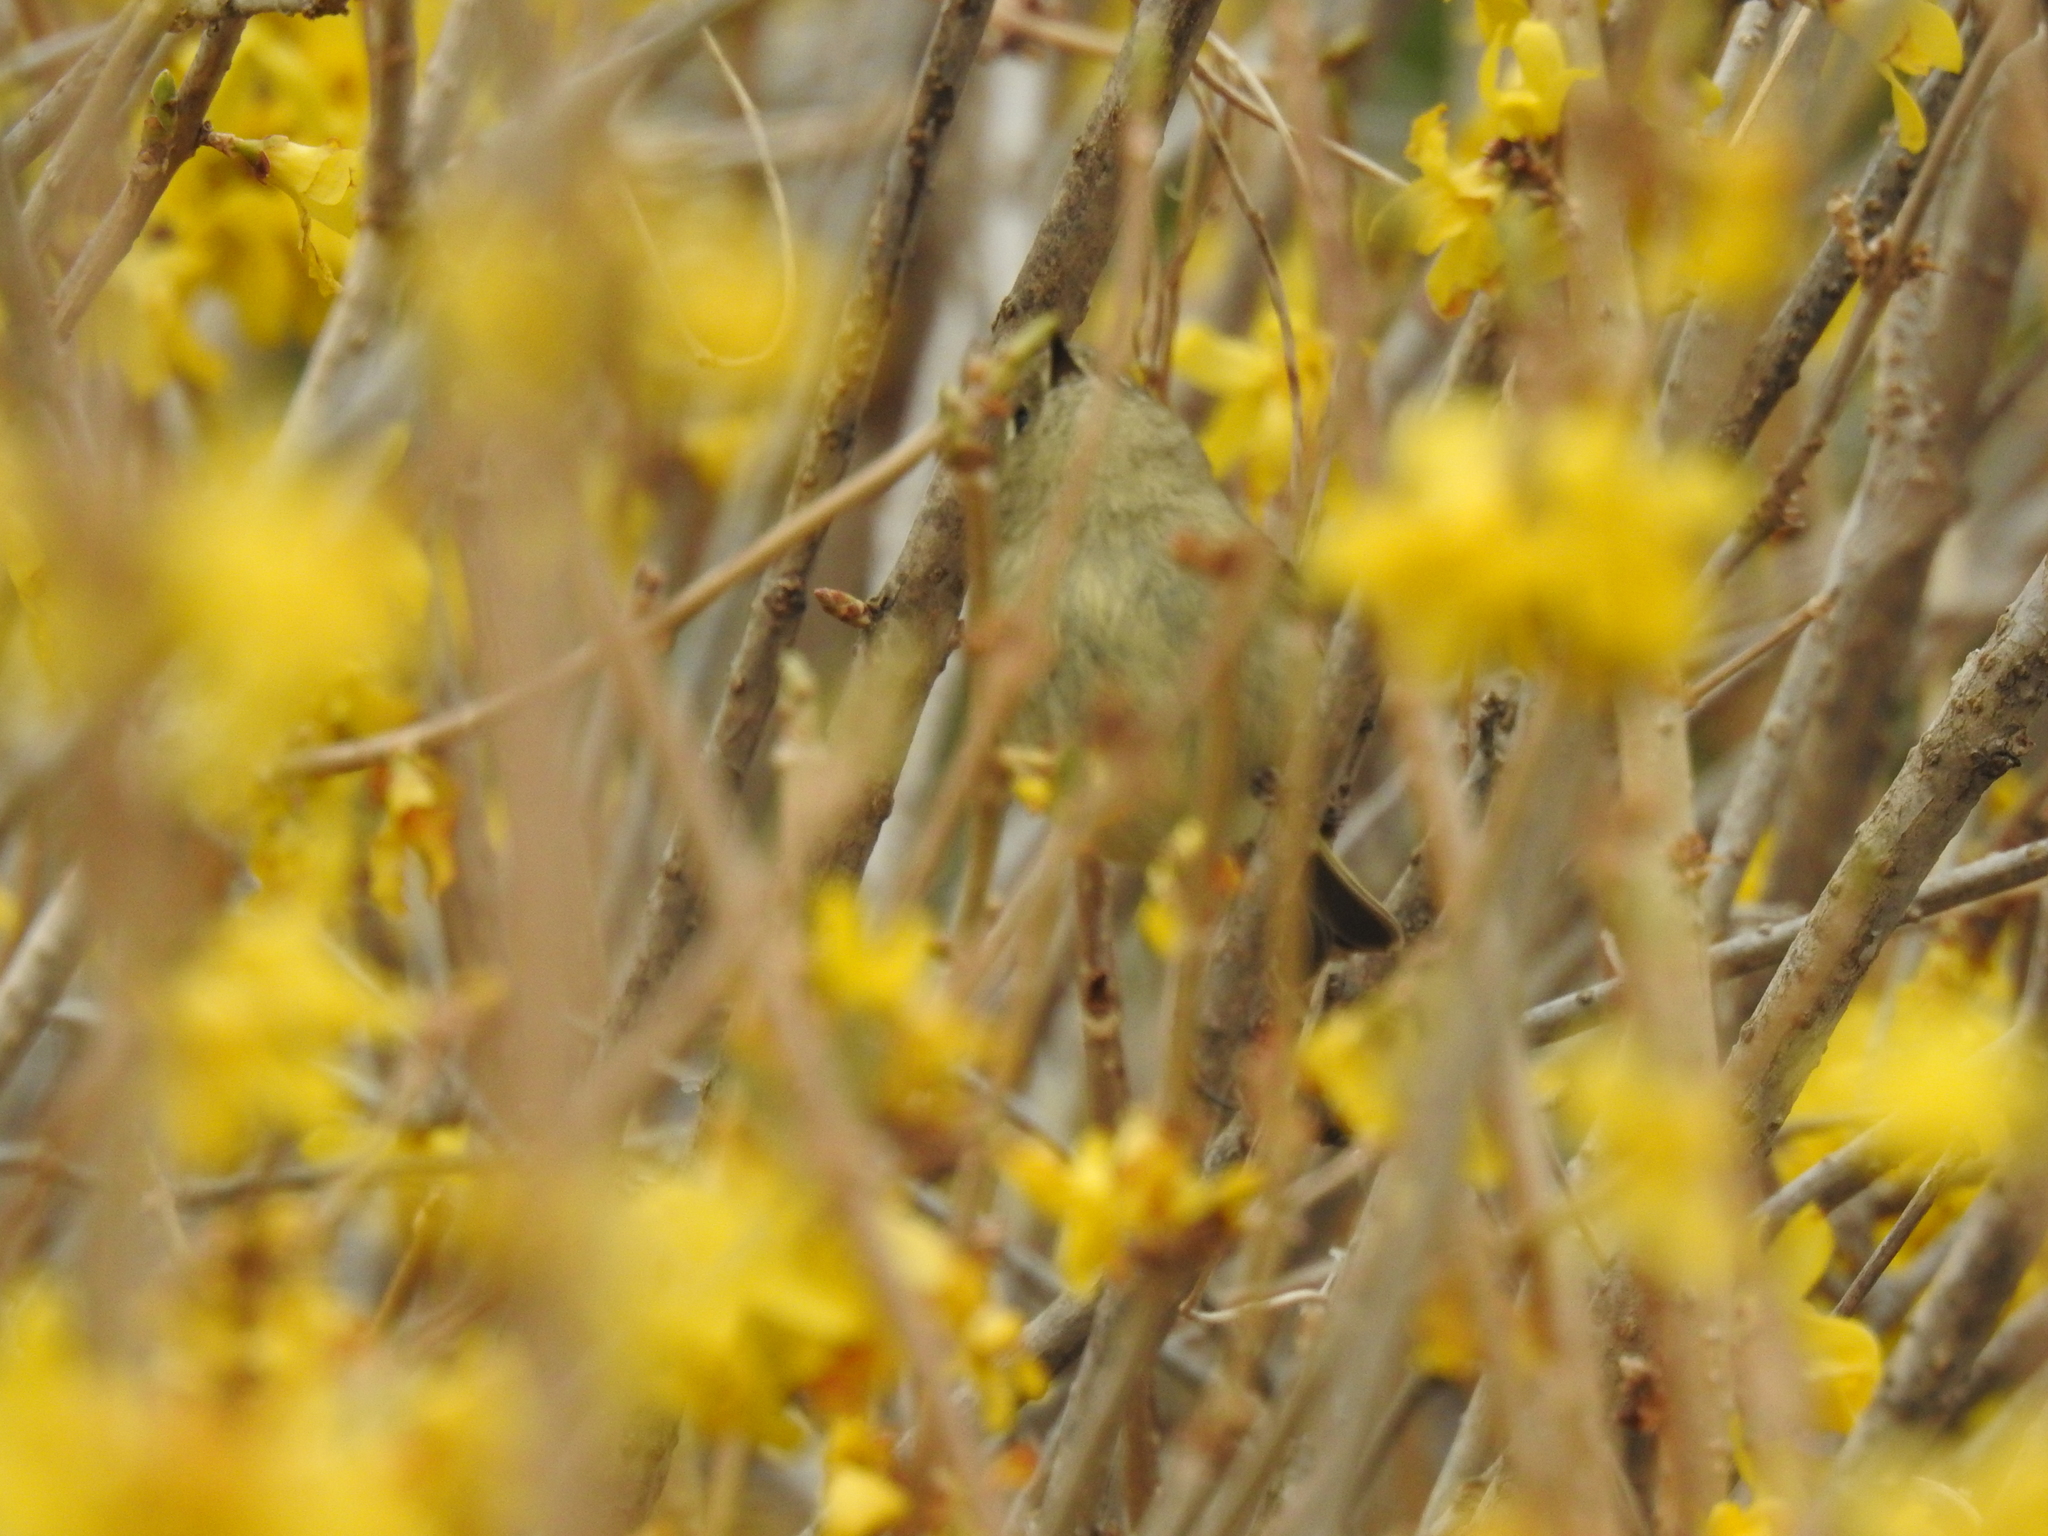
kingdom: Animalia
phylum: Chordata
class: Aves
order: Passeriformes
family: Regulidae
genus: Regulus
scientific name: Regulus calendula
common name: Ruby-crowned kinglet
